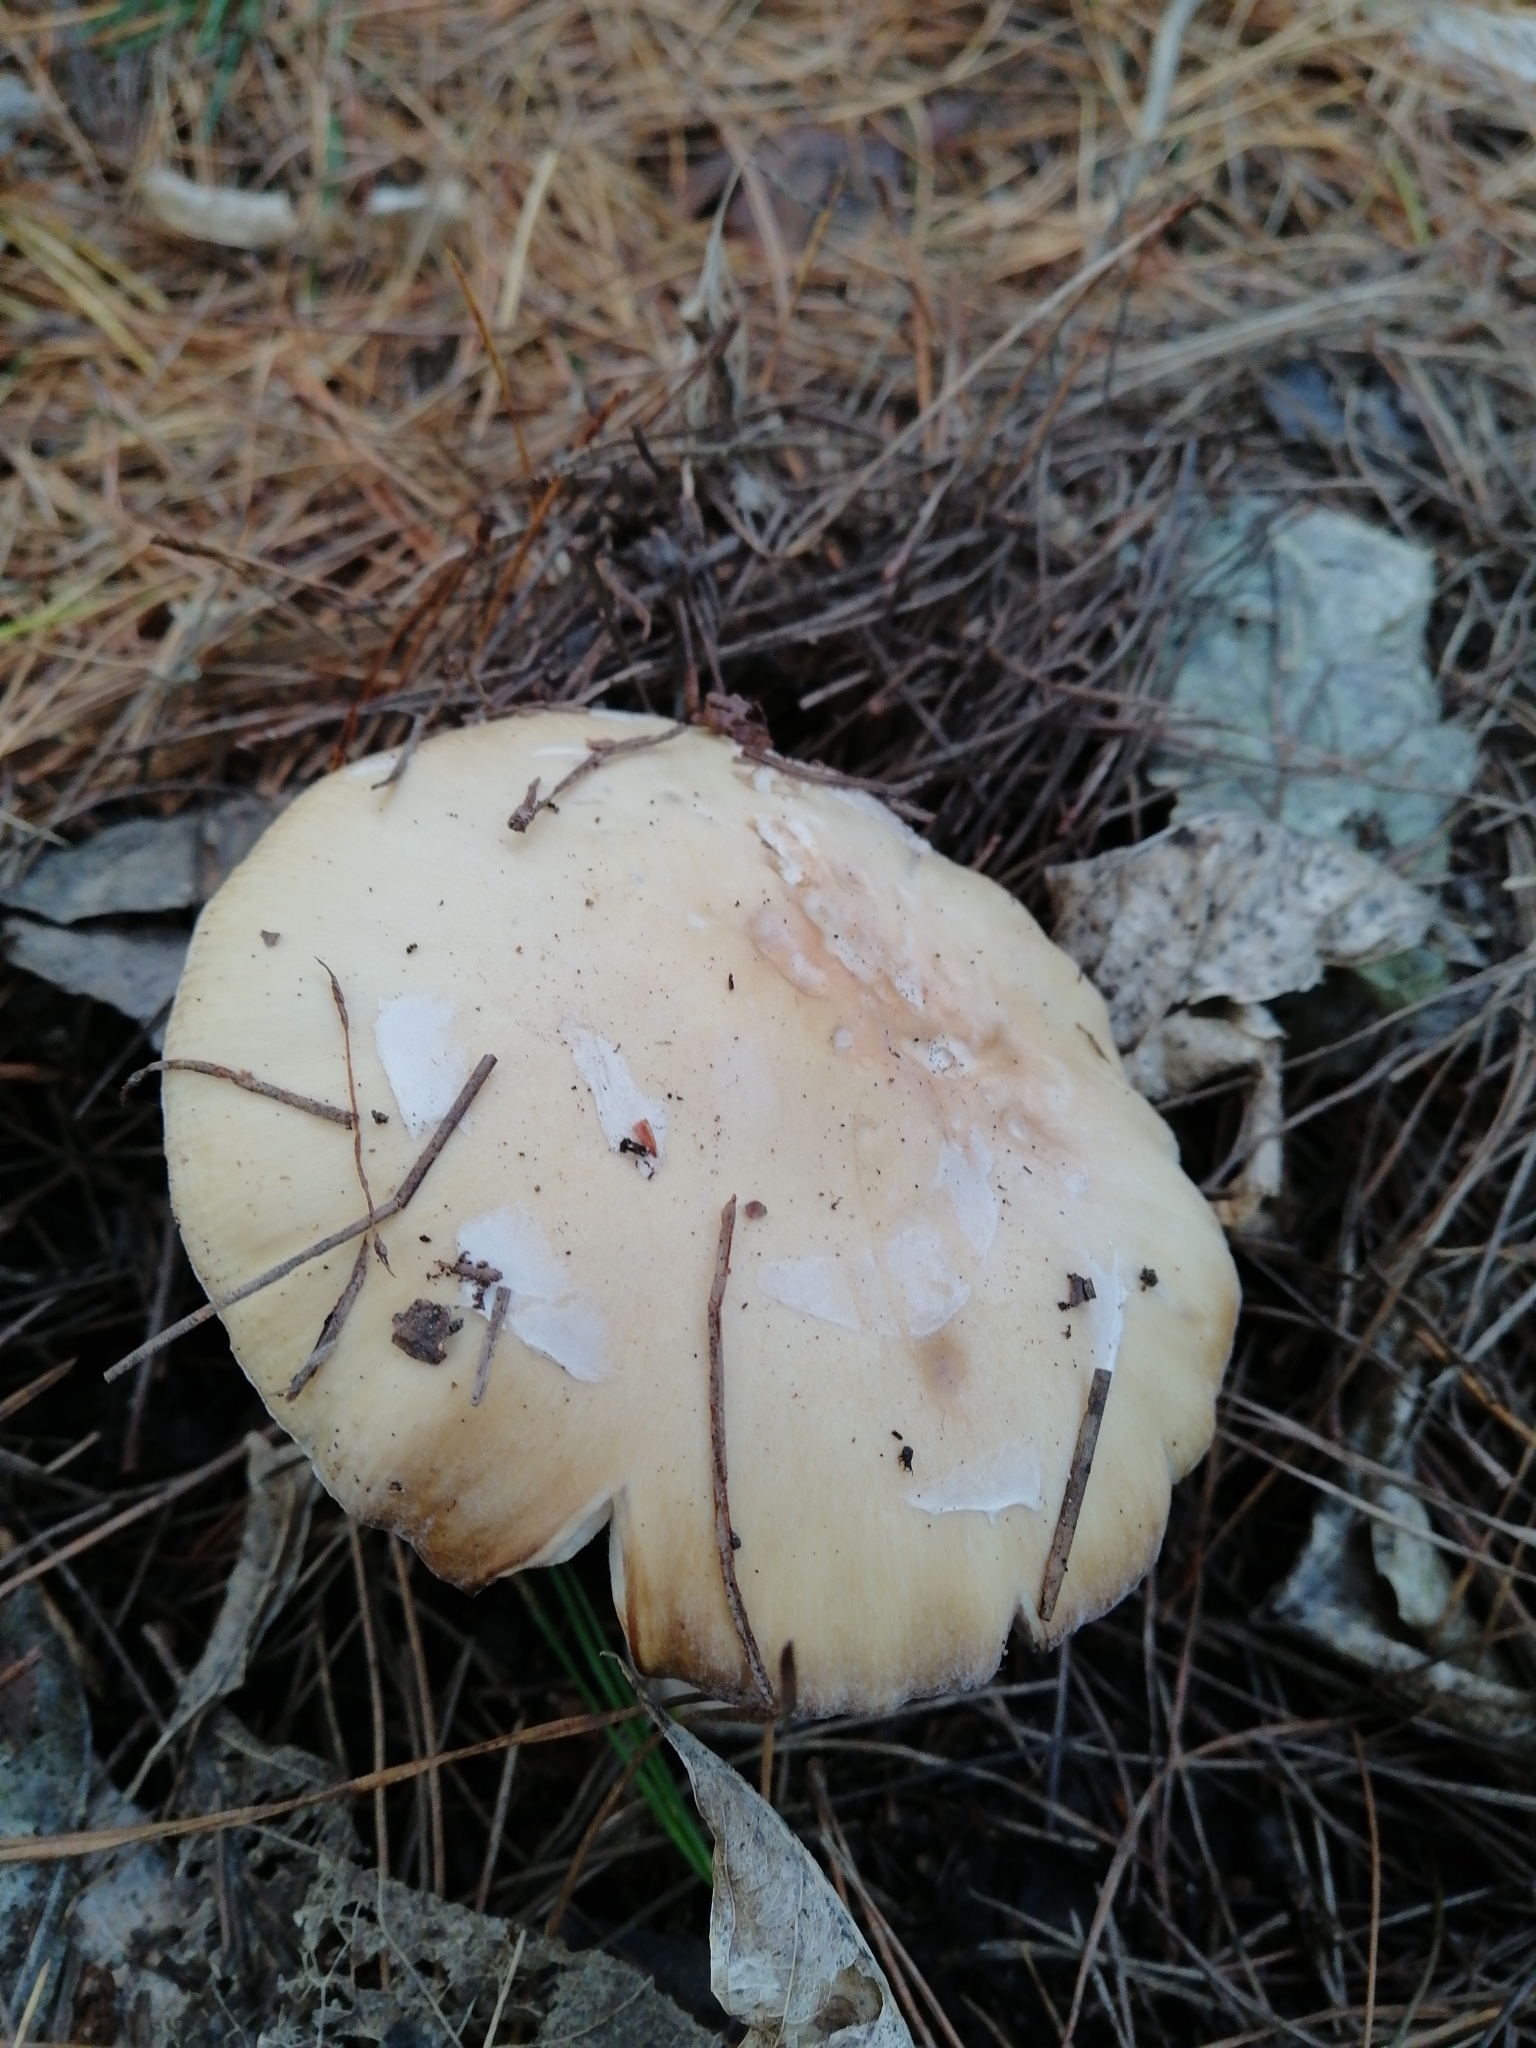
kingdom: Fungi
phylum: Basidiomycota
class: Agaricomycetes
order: Agaricales
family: Amanitaceae
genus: Amanita
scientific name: Amanita gemmata
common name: Jewelled amanita
